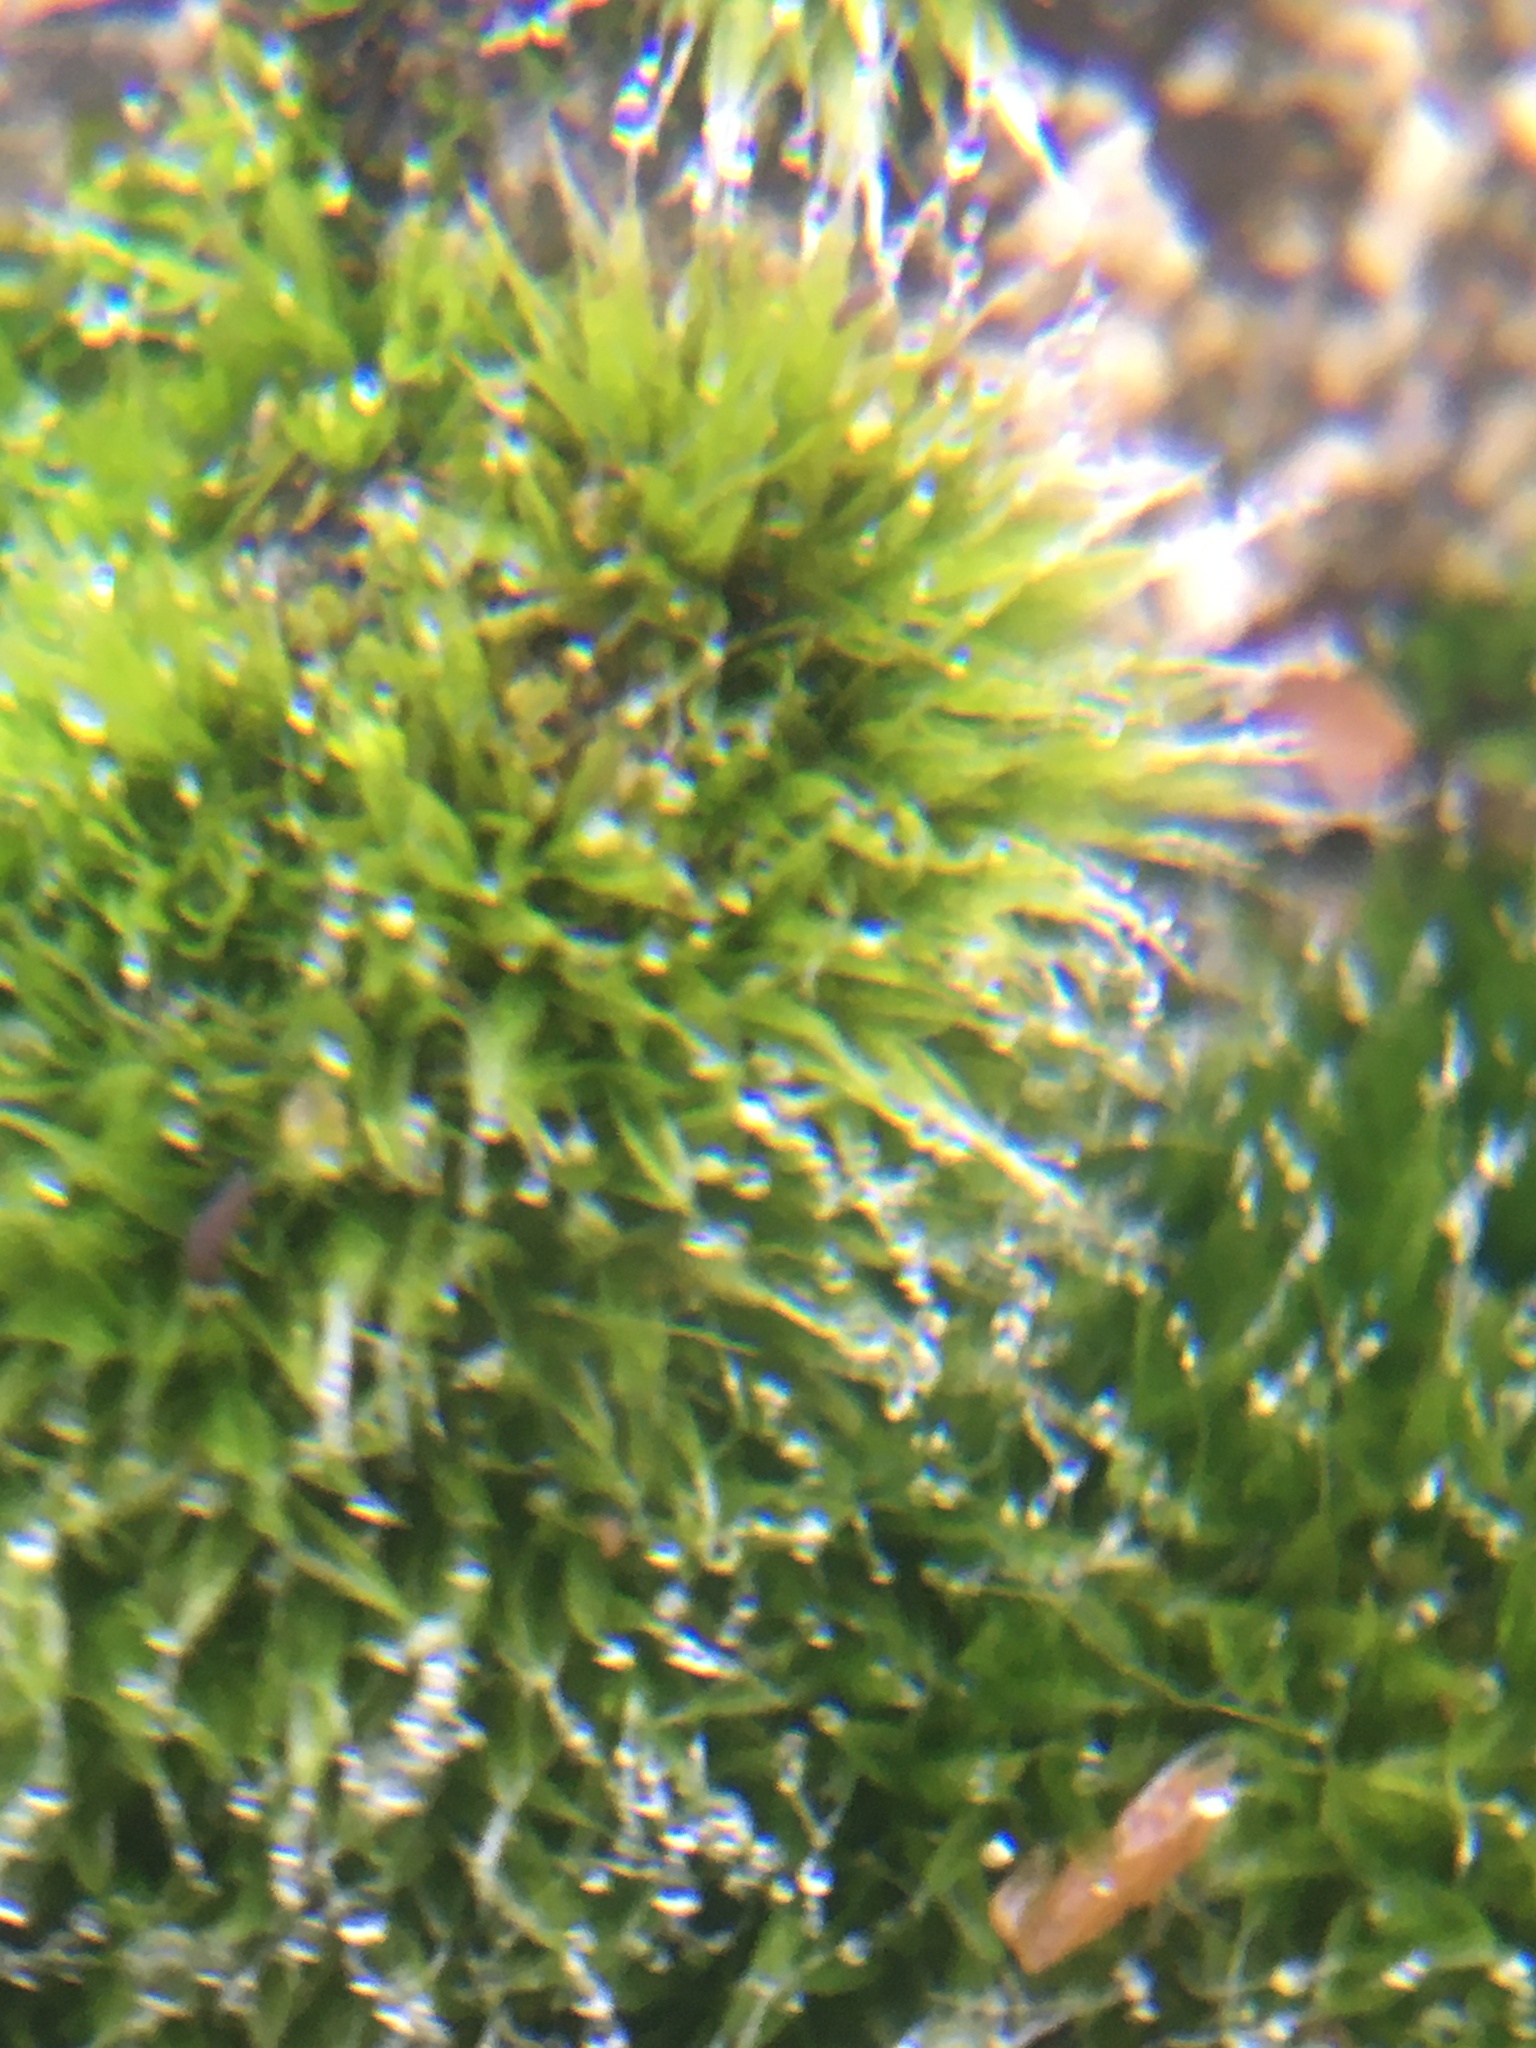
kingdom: Plantae
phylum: Bryophyta
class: Bryopsida
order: Grimmiales
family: Grimmiaceae
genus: Grimmia
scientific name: Grimmia pulvinata
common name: Grey-cushioned grimmia
